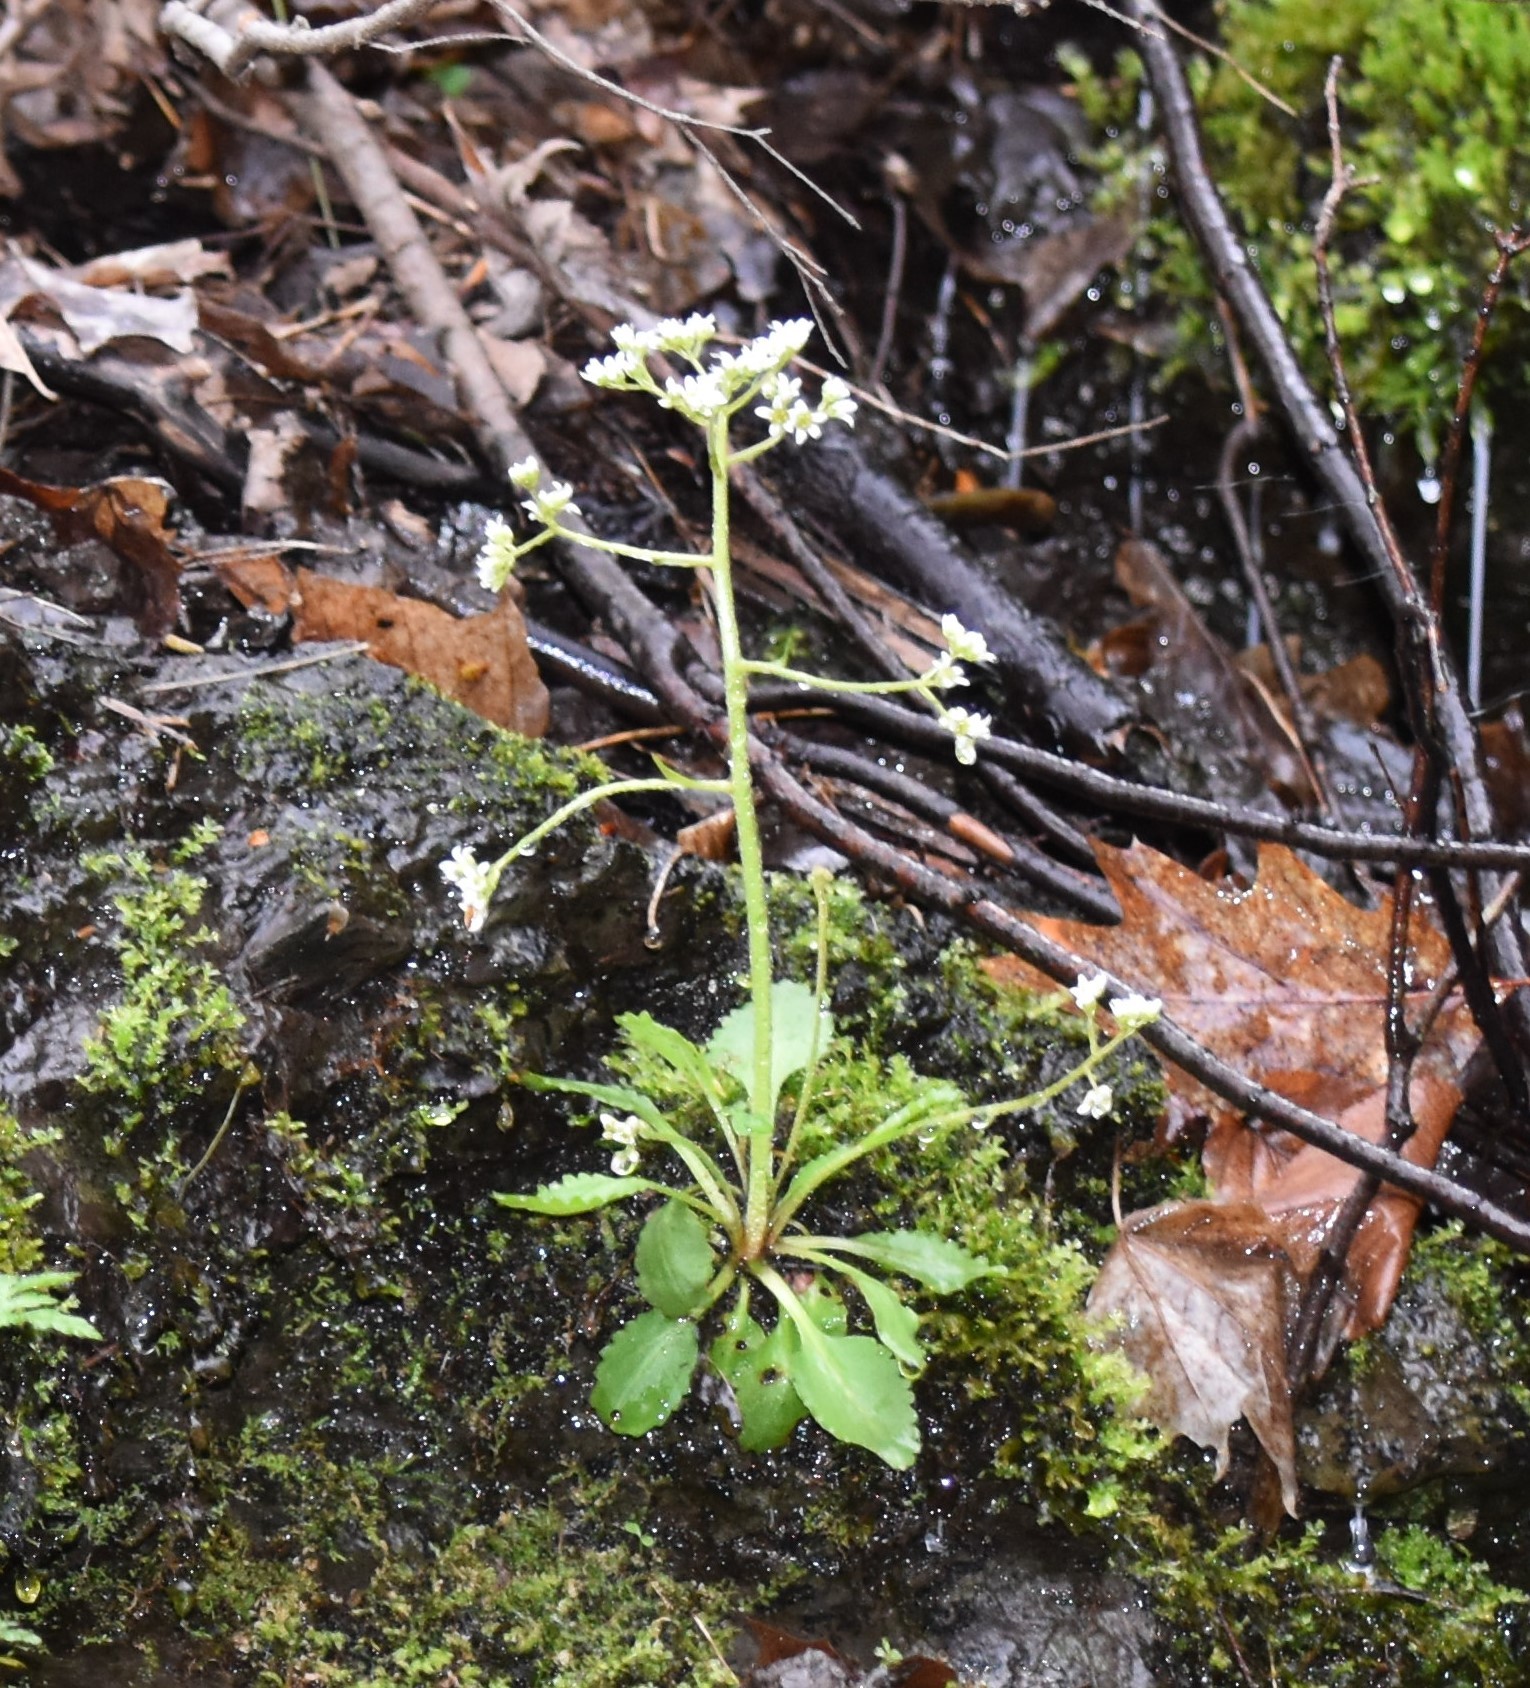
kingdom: Plantae
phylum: Tracheophyta
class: Magnoliopsida
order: Saxifragales
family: Saxifragaceae
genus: Micranthes
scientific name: Micranthes virginiensis
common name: Early saxifrage
